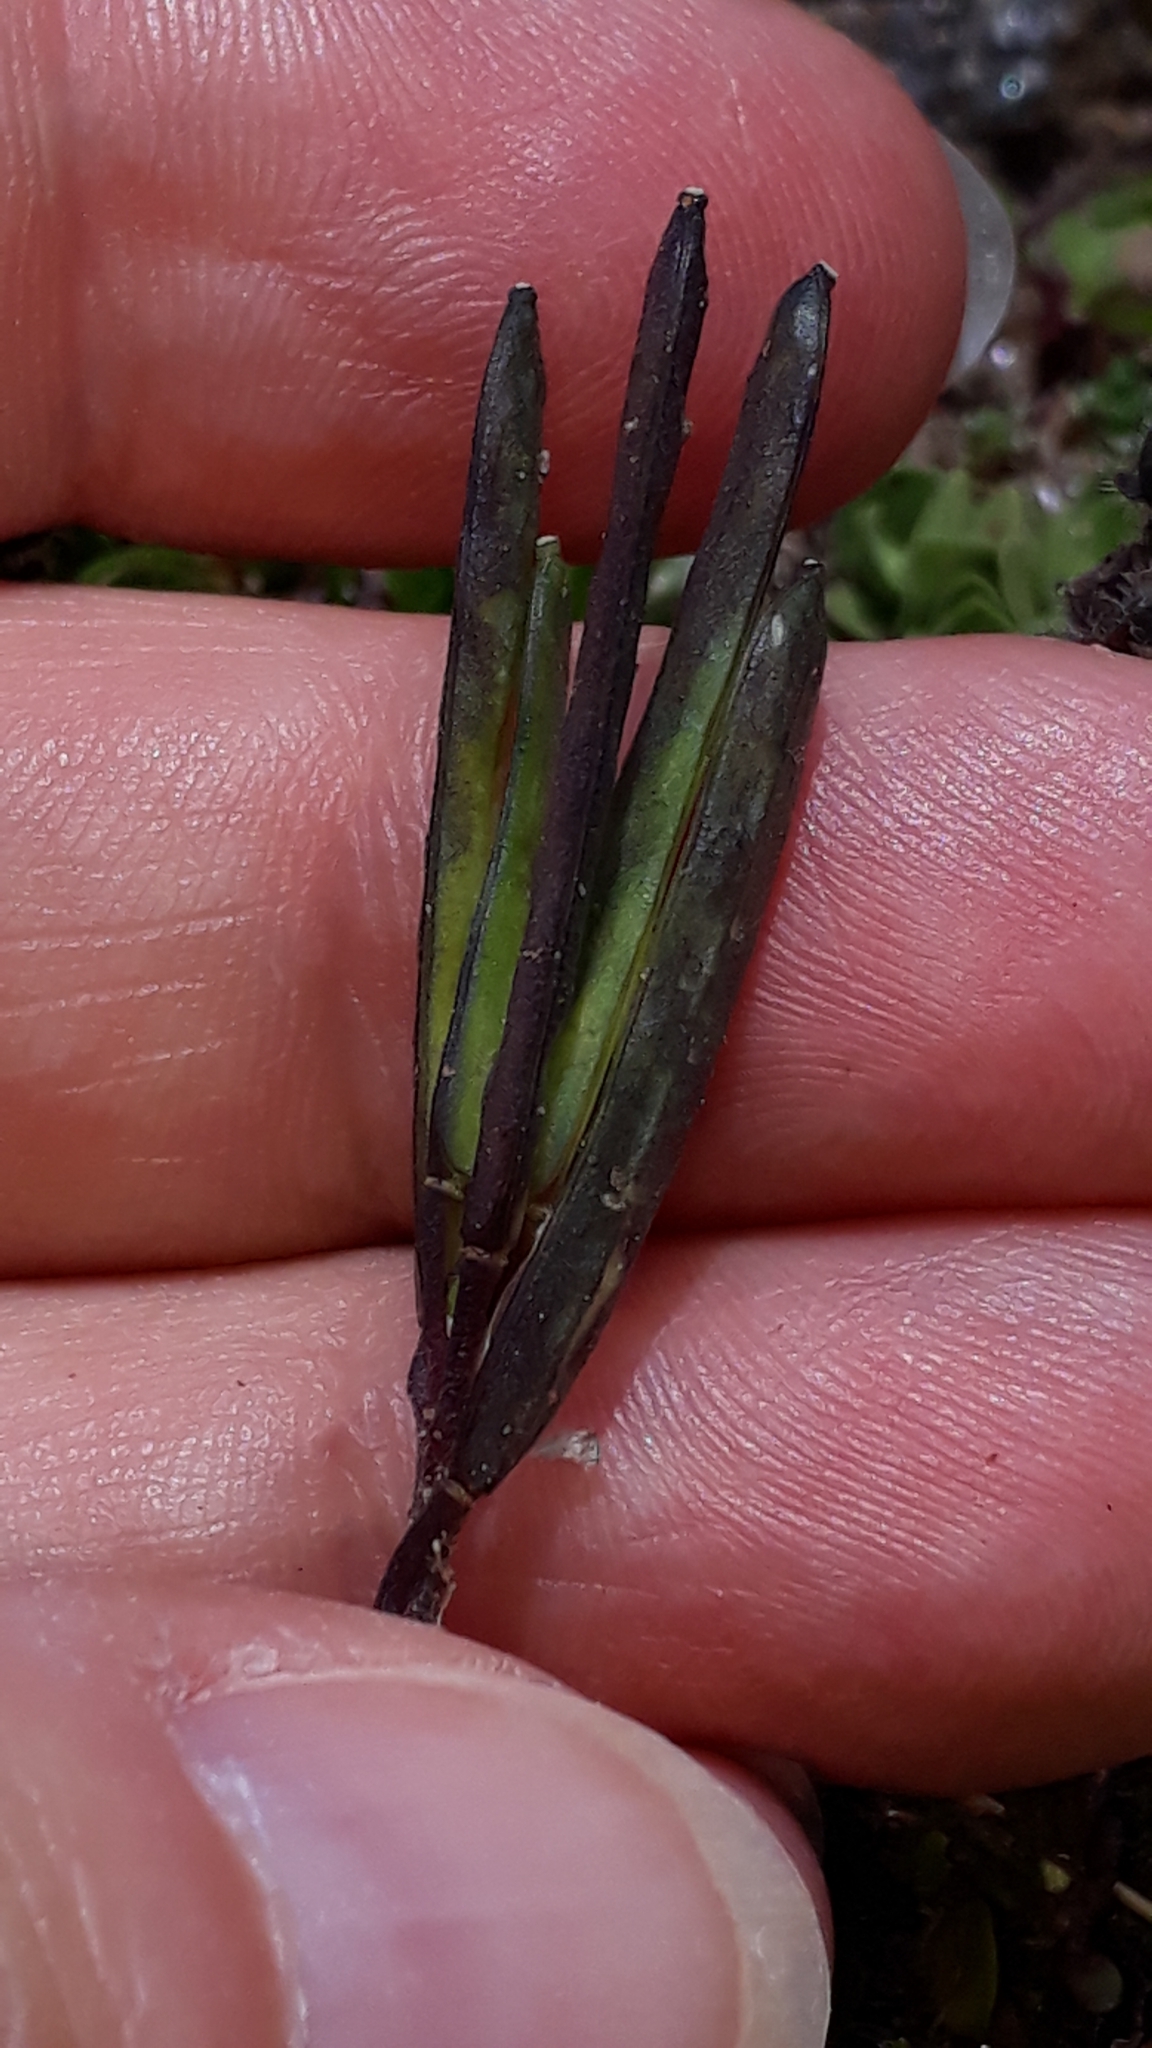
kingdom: Plantae
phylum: Tracheophyta
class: Magnoliopsida
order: Brassicales
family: Brassicaceae
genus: Arabis
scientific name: Arabis caerulea
